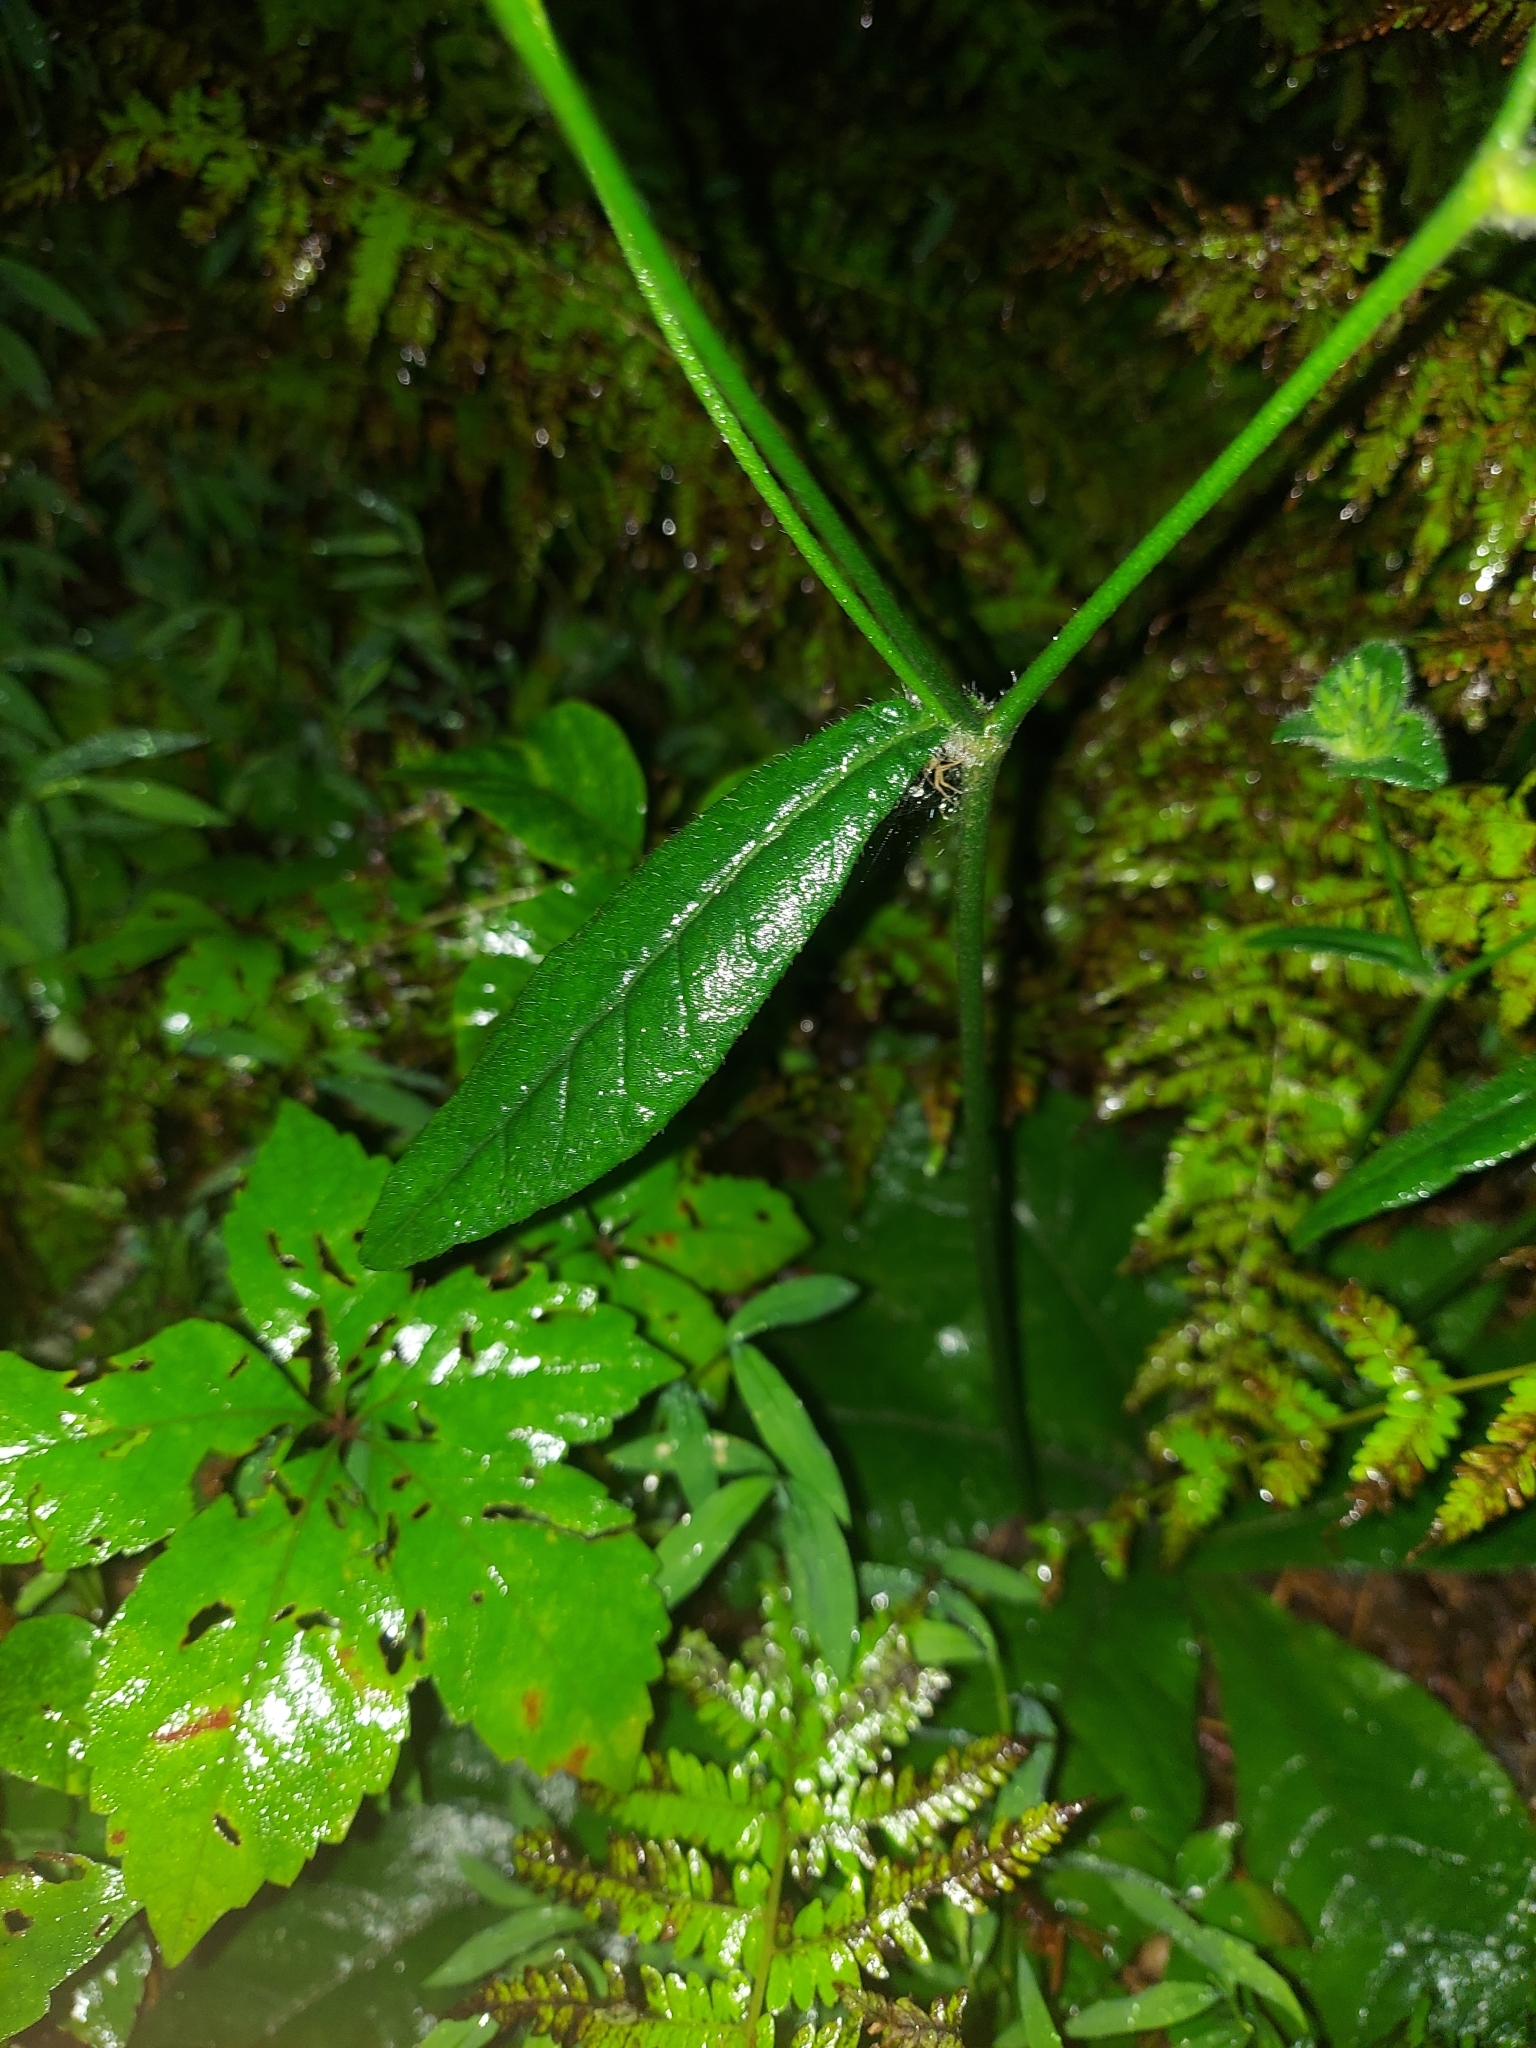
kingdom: Plantae
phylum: Tracheophyta
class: Magnoliopsida
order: Asterales
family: Asteraceae
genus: Elephantopus
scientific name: Elephantopus tomentosus
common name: Tobacco-weed
